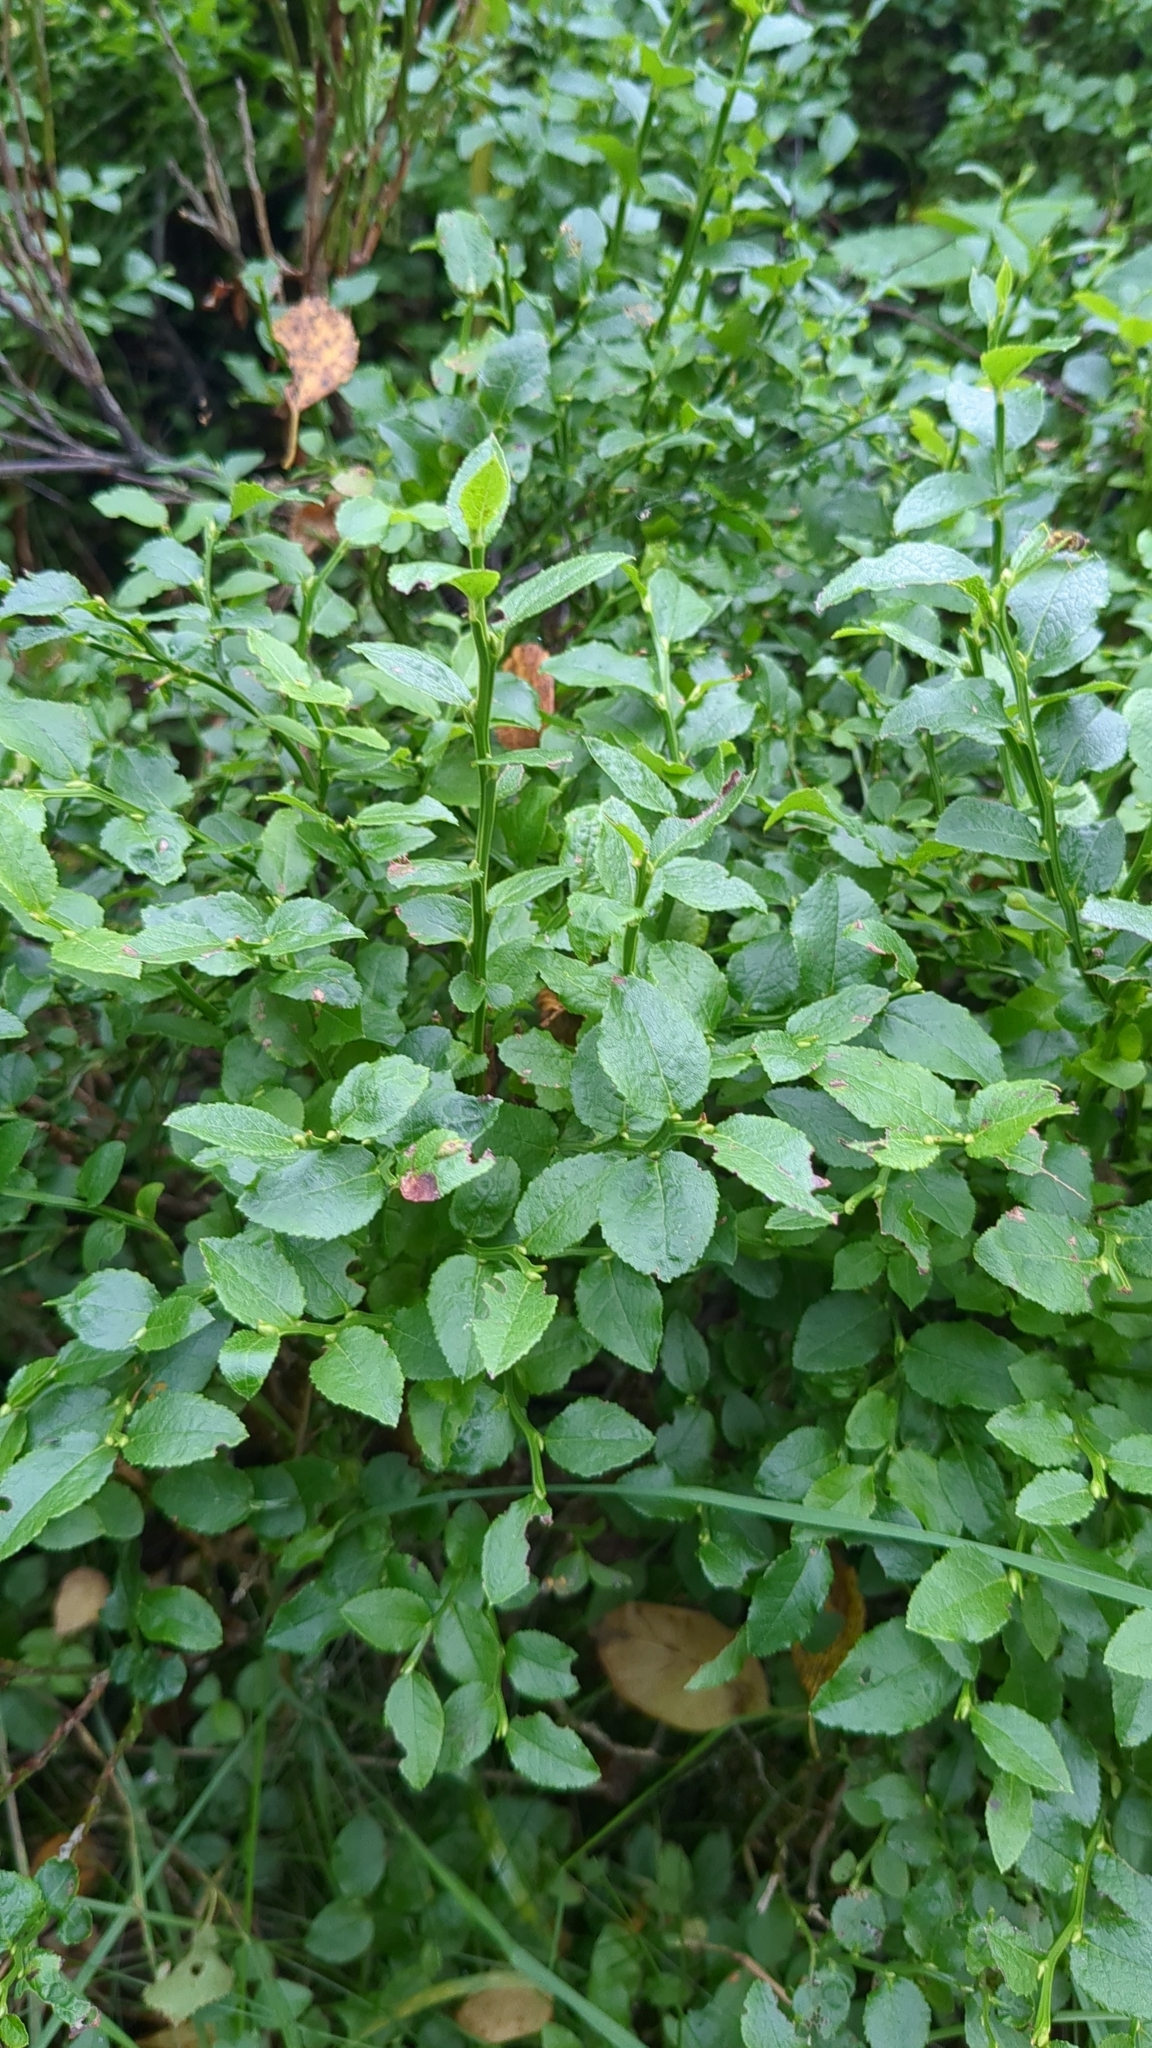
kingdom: Plantae
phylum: Tracheophyta
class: Magnoliopsida
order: Ericales
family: Ericaceae
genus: Vaccinium
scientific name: Vaccinium myrtillus
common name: Bilberry
